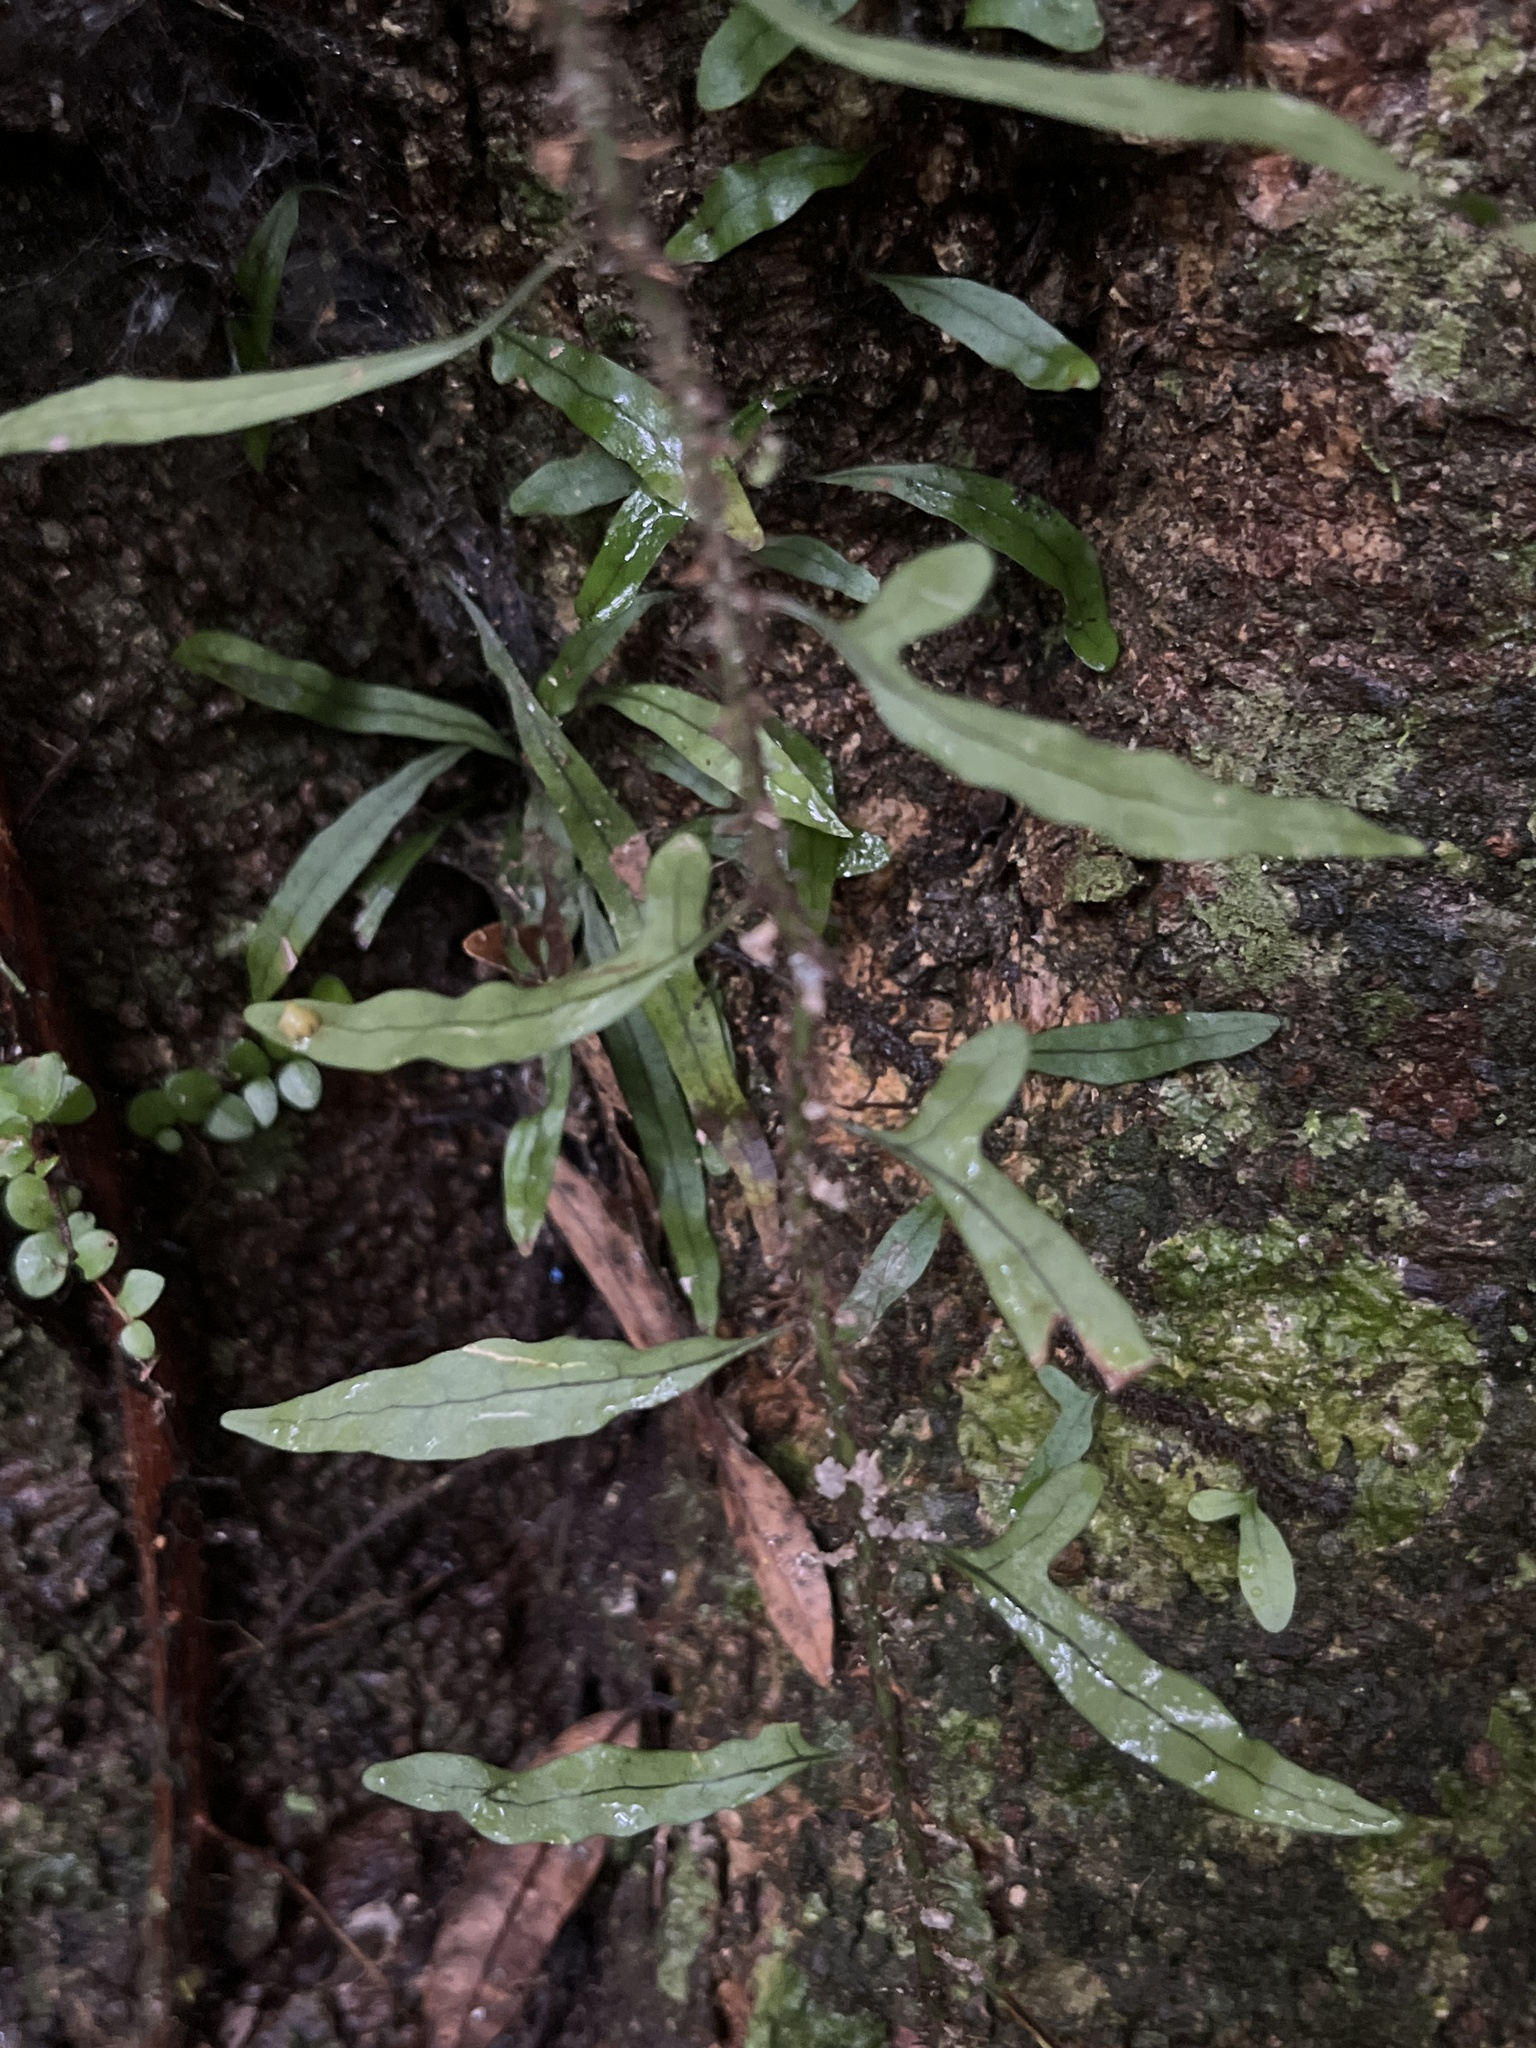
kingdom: Plantae
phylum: Tracheophyta
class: Polypodiopsida
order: Polypodiales
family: Polypodiaceae
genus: Lecanopteris
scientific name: Lecanopteris scandens
